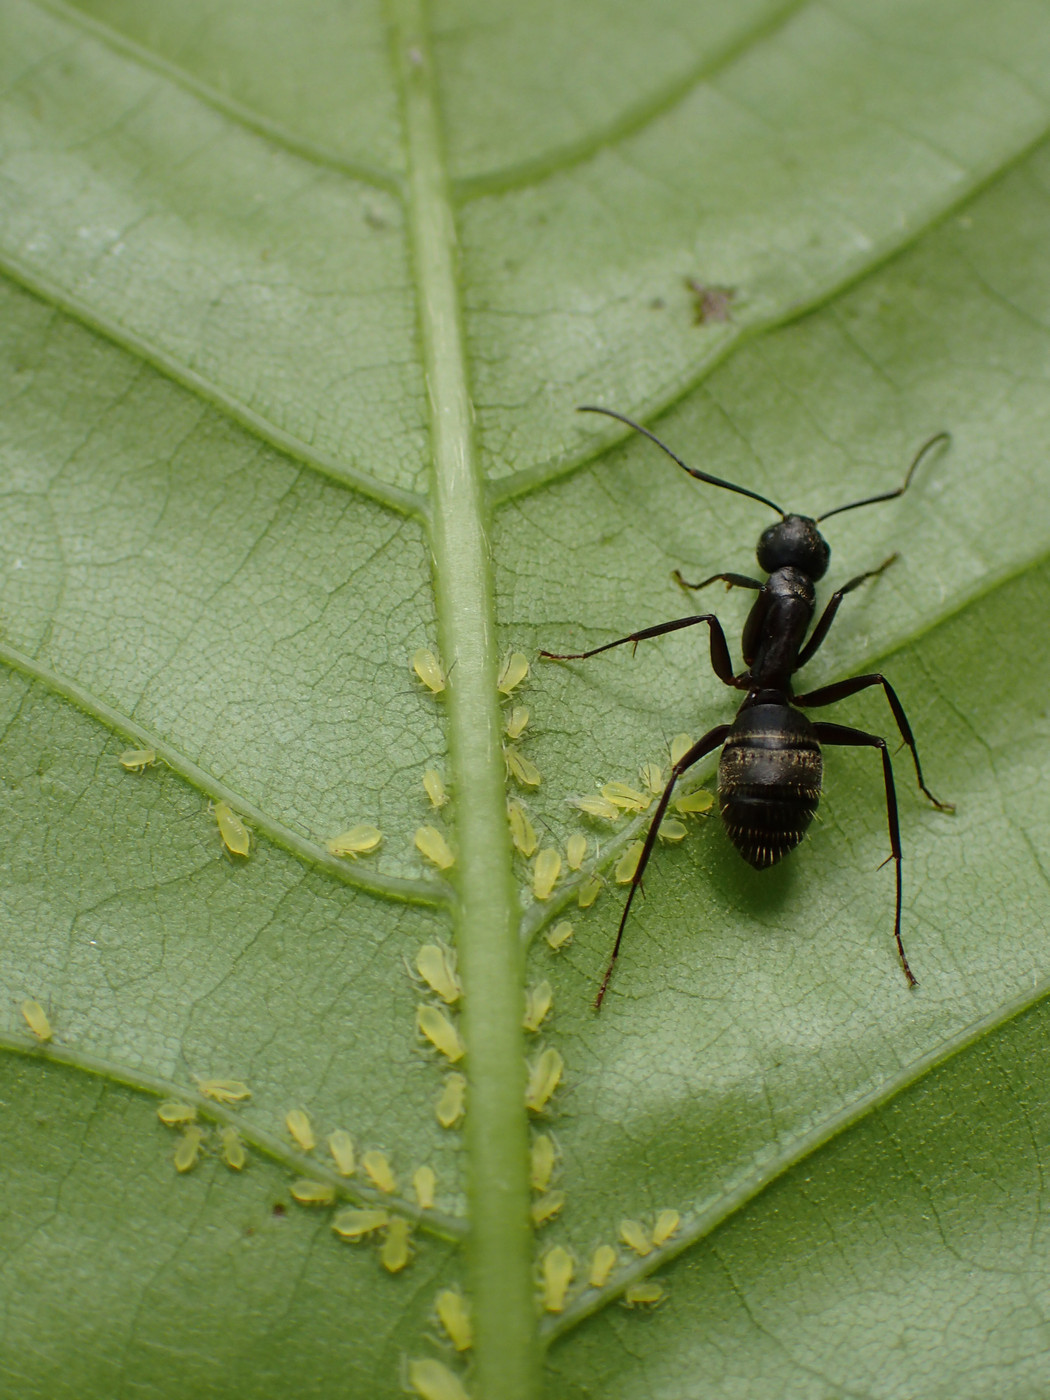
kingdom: Animalia
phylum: Arthropoda
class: Insecta
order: Hymenoptera
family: Formicidae
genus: Camponotus
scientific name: Camponotus pennsylvanicus
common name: Black carpenter ant
